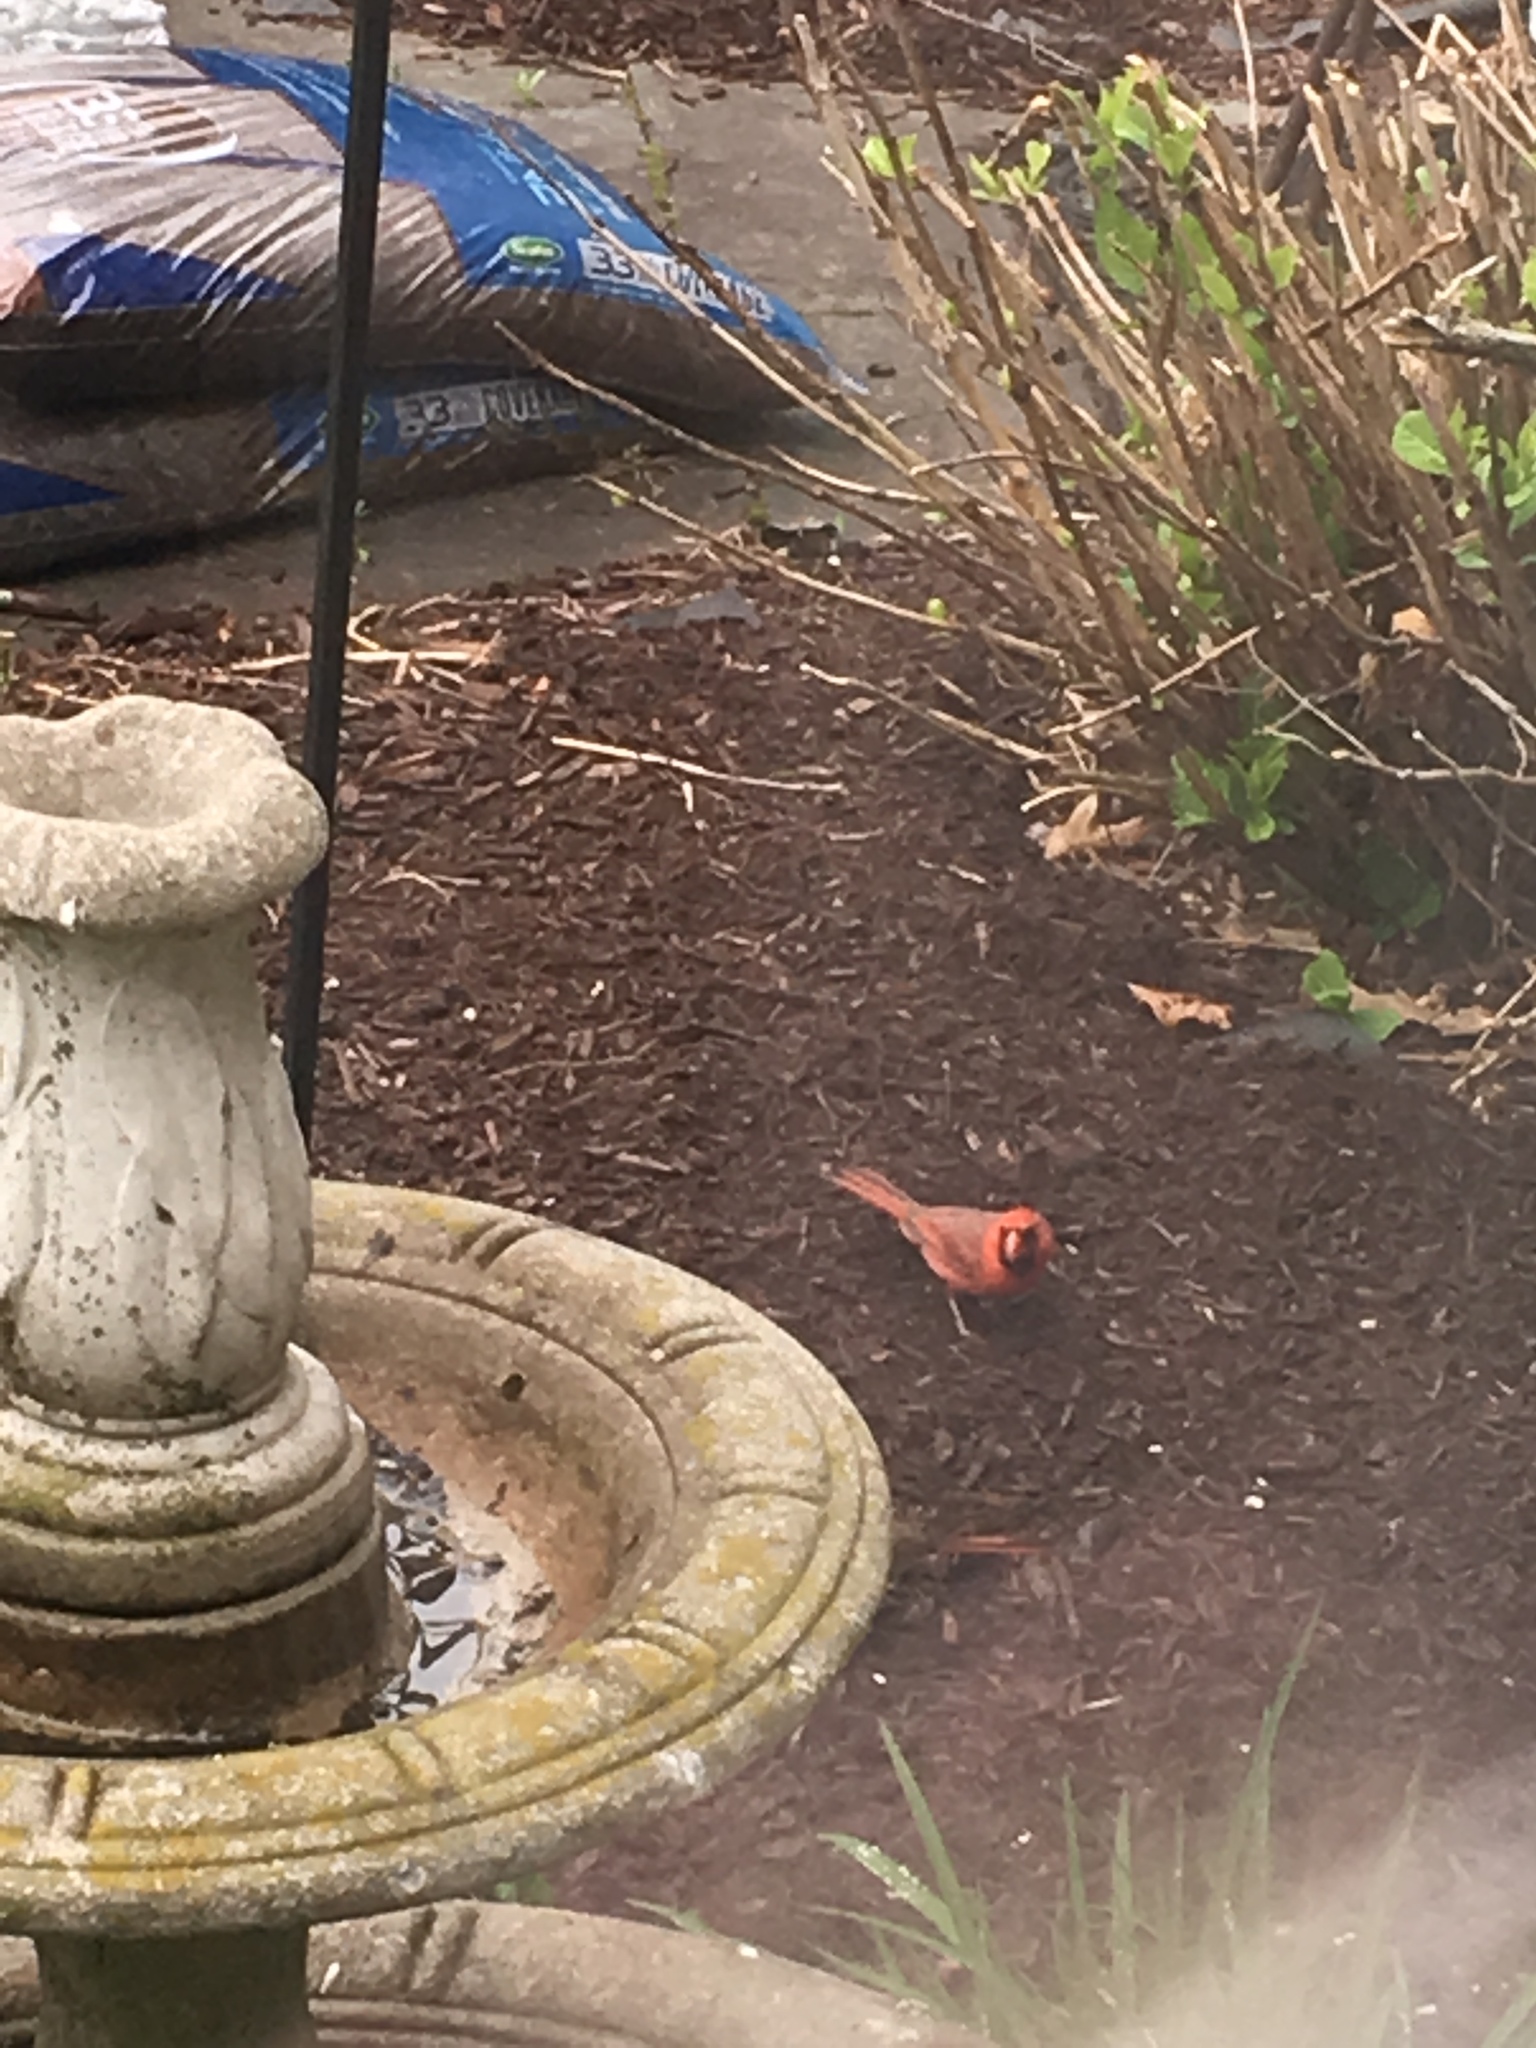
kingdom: Animalia
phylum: Chordata
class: Aves
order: Passeriformes
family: Cardinalidae
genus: Cardinalis
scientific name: Cardinalis cardinalis
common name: Northern cardinal
